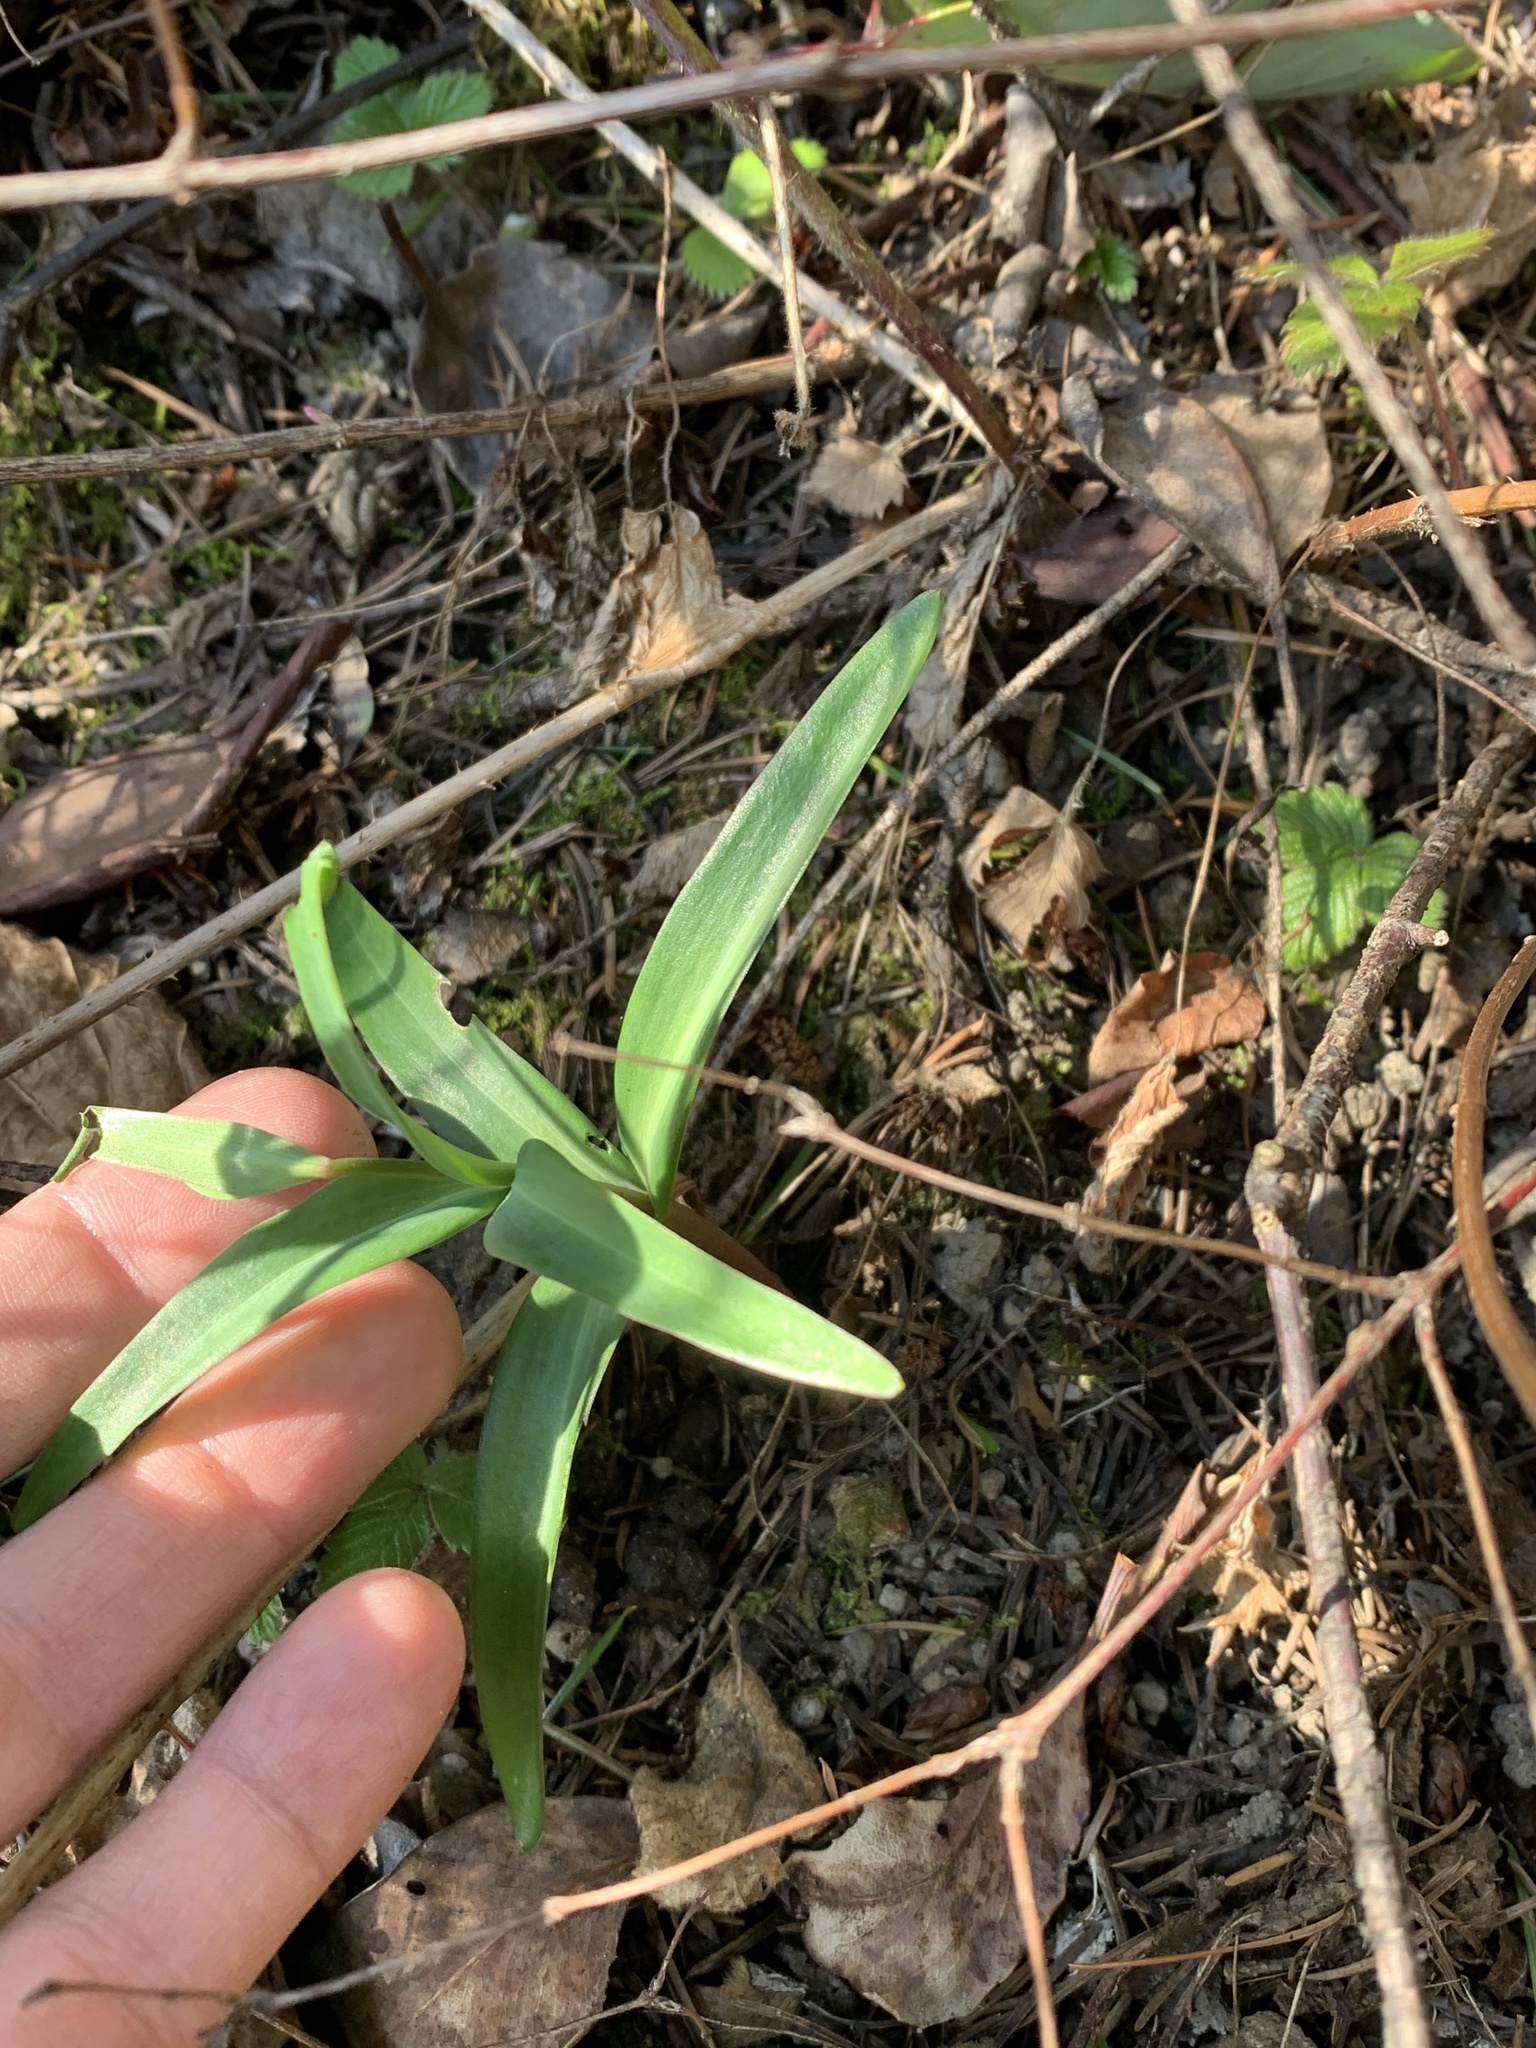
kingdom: Plantae
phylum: Tracheophyta
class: Liliopsida
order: Liliales
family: Liliaceae
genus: Fritillaria
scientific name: Fritillaria affinis
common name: Ojai fritillary
